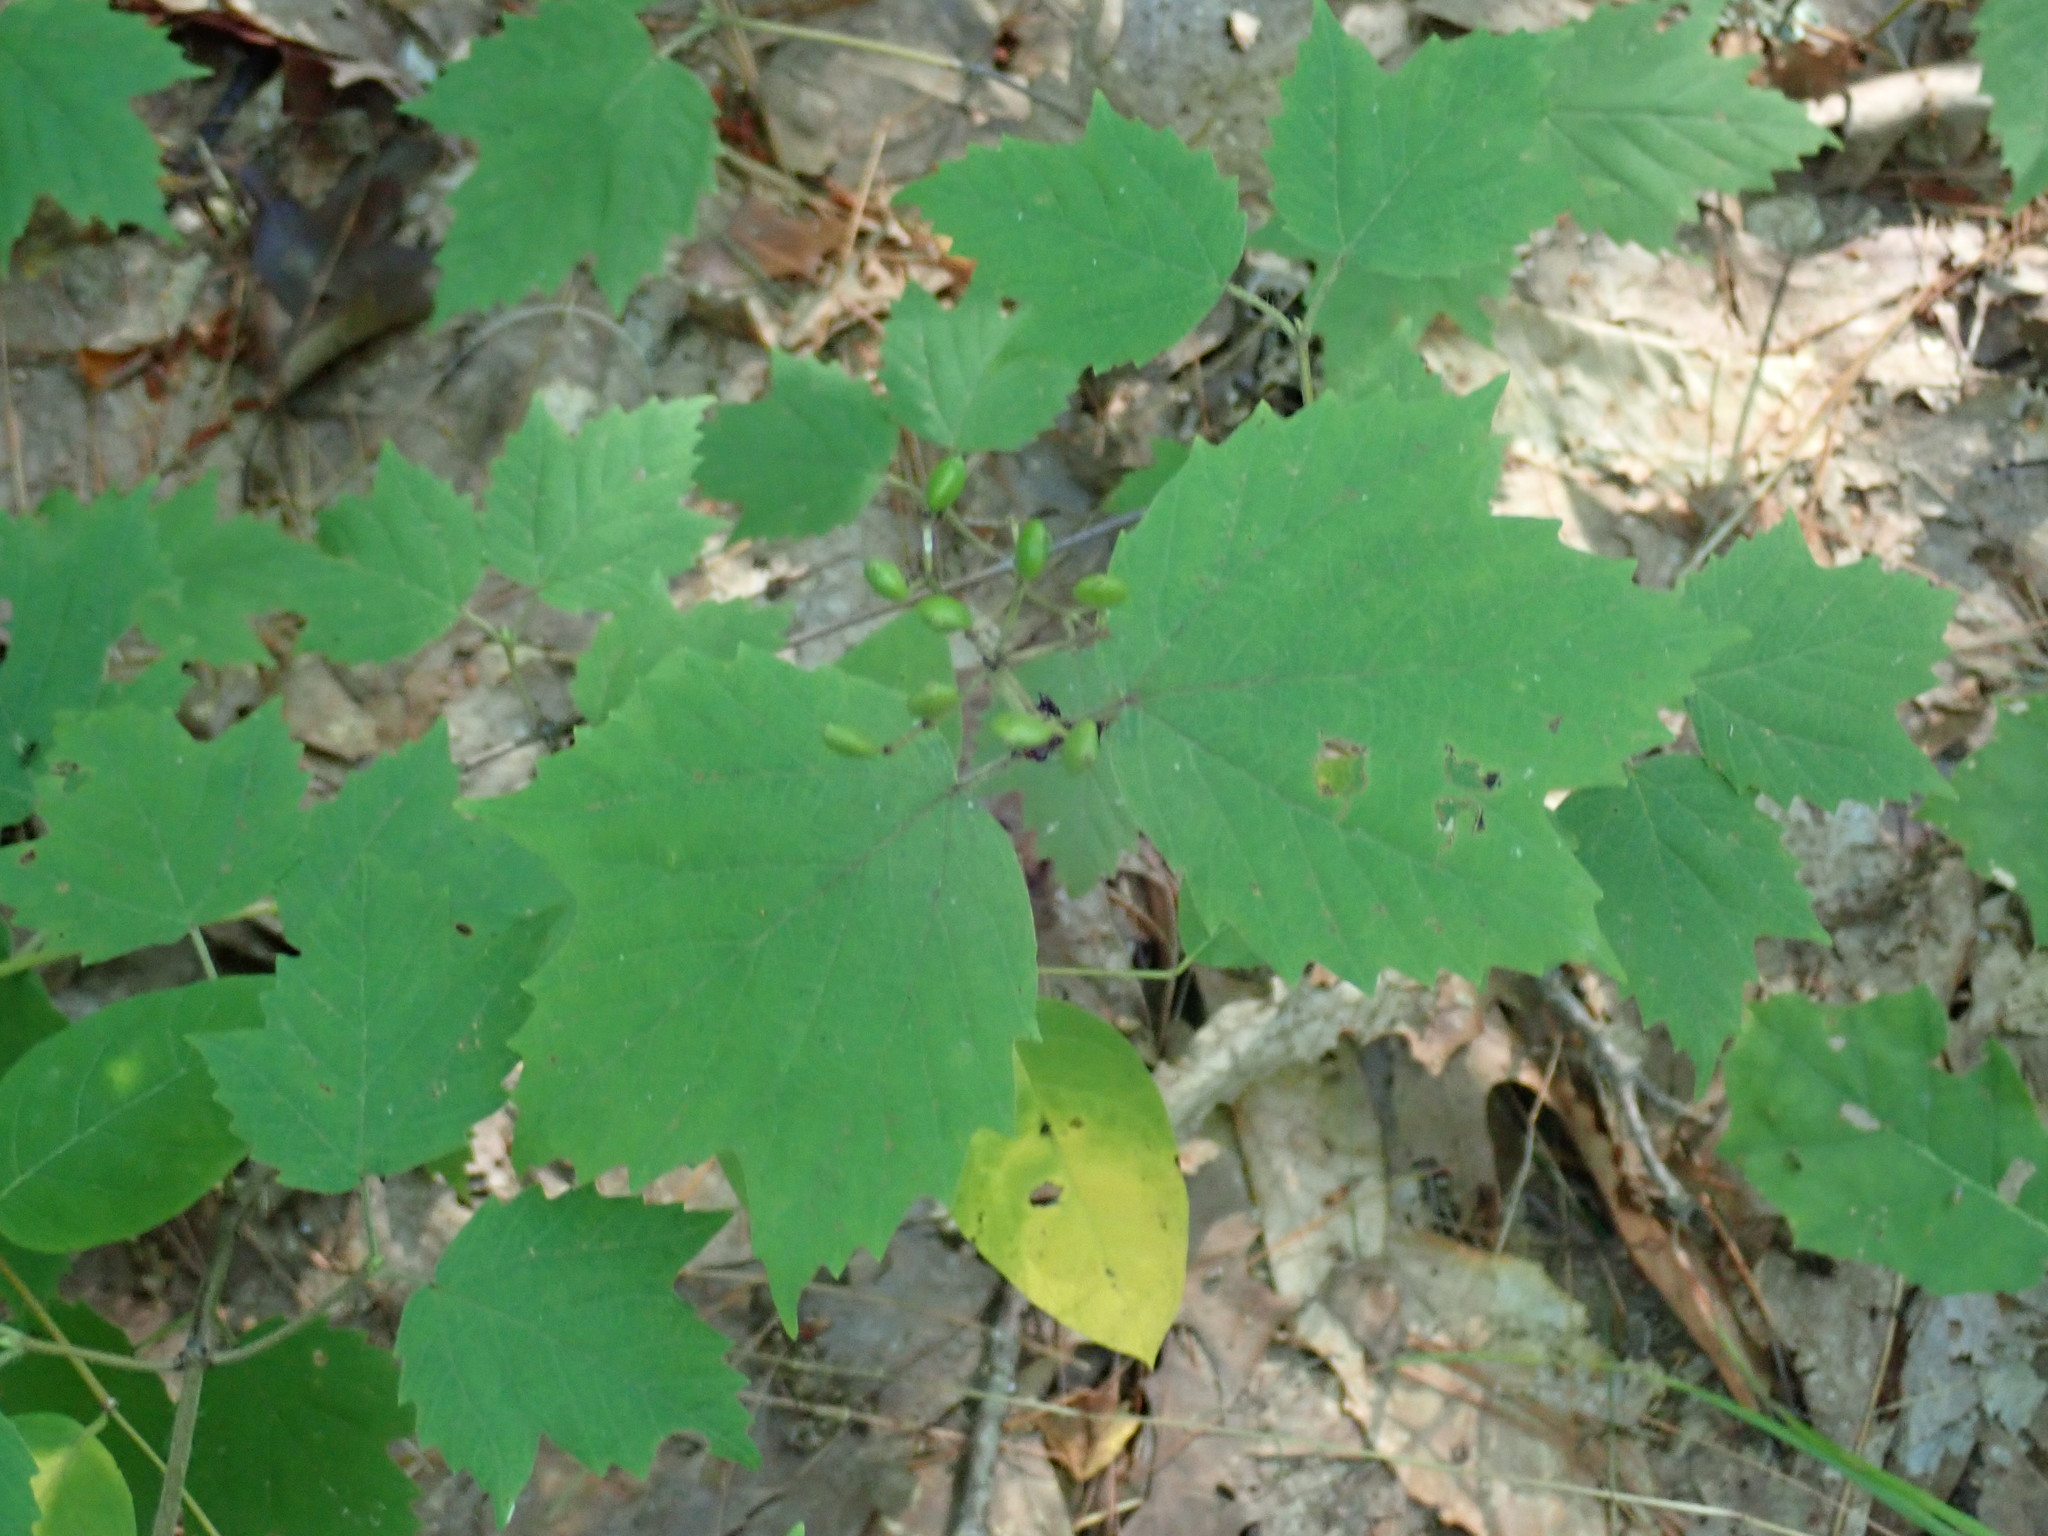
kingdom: Plantae
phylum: Tracheophyta
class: Magnoliopsida
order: Dipsacales
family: Viburnaceae
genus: Viburnum
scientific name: Viburnum acerifolium
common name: Dockmackie
